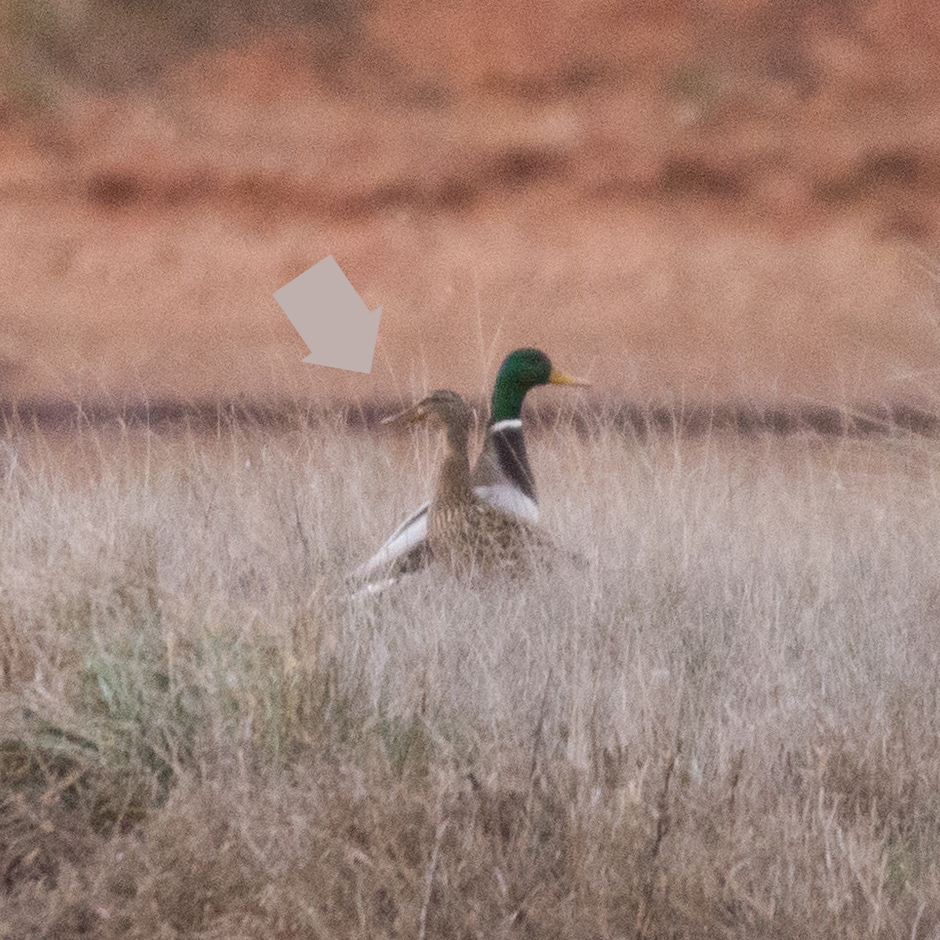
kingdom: Animalia
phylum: Chordata
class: Aves
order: Anseriformes
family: Anatidae
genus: Anas
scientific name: Anas platyrhynchos
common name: Mallard
